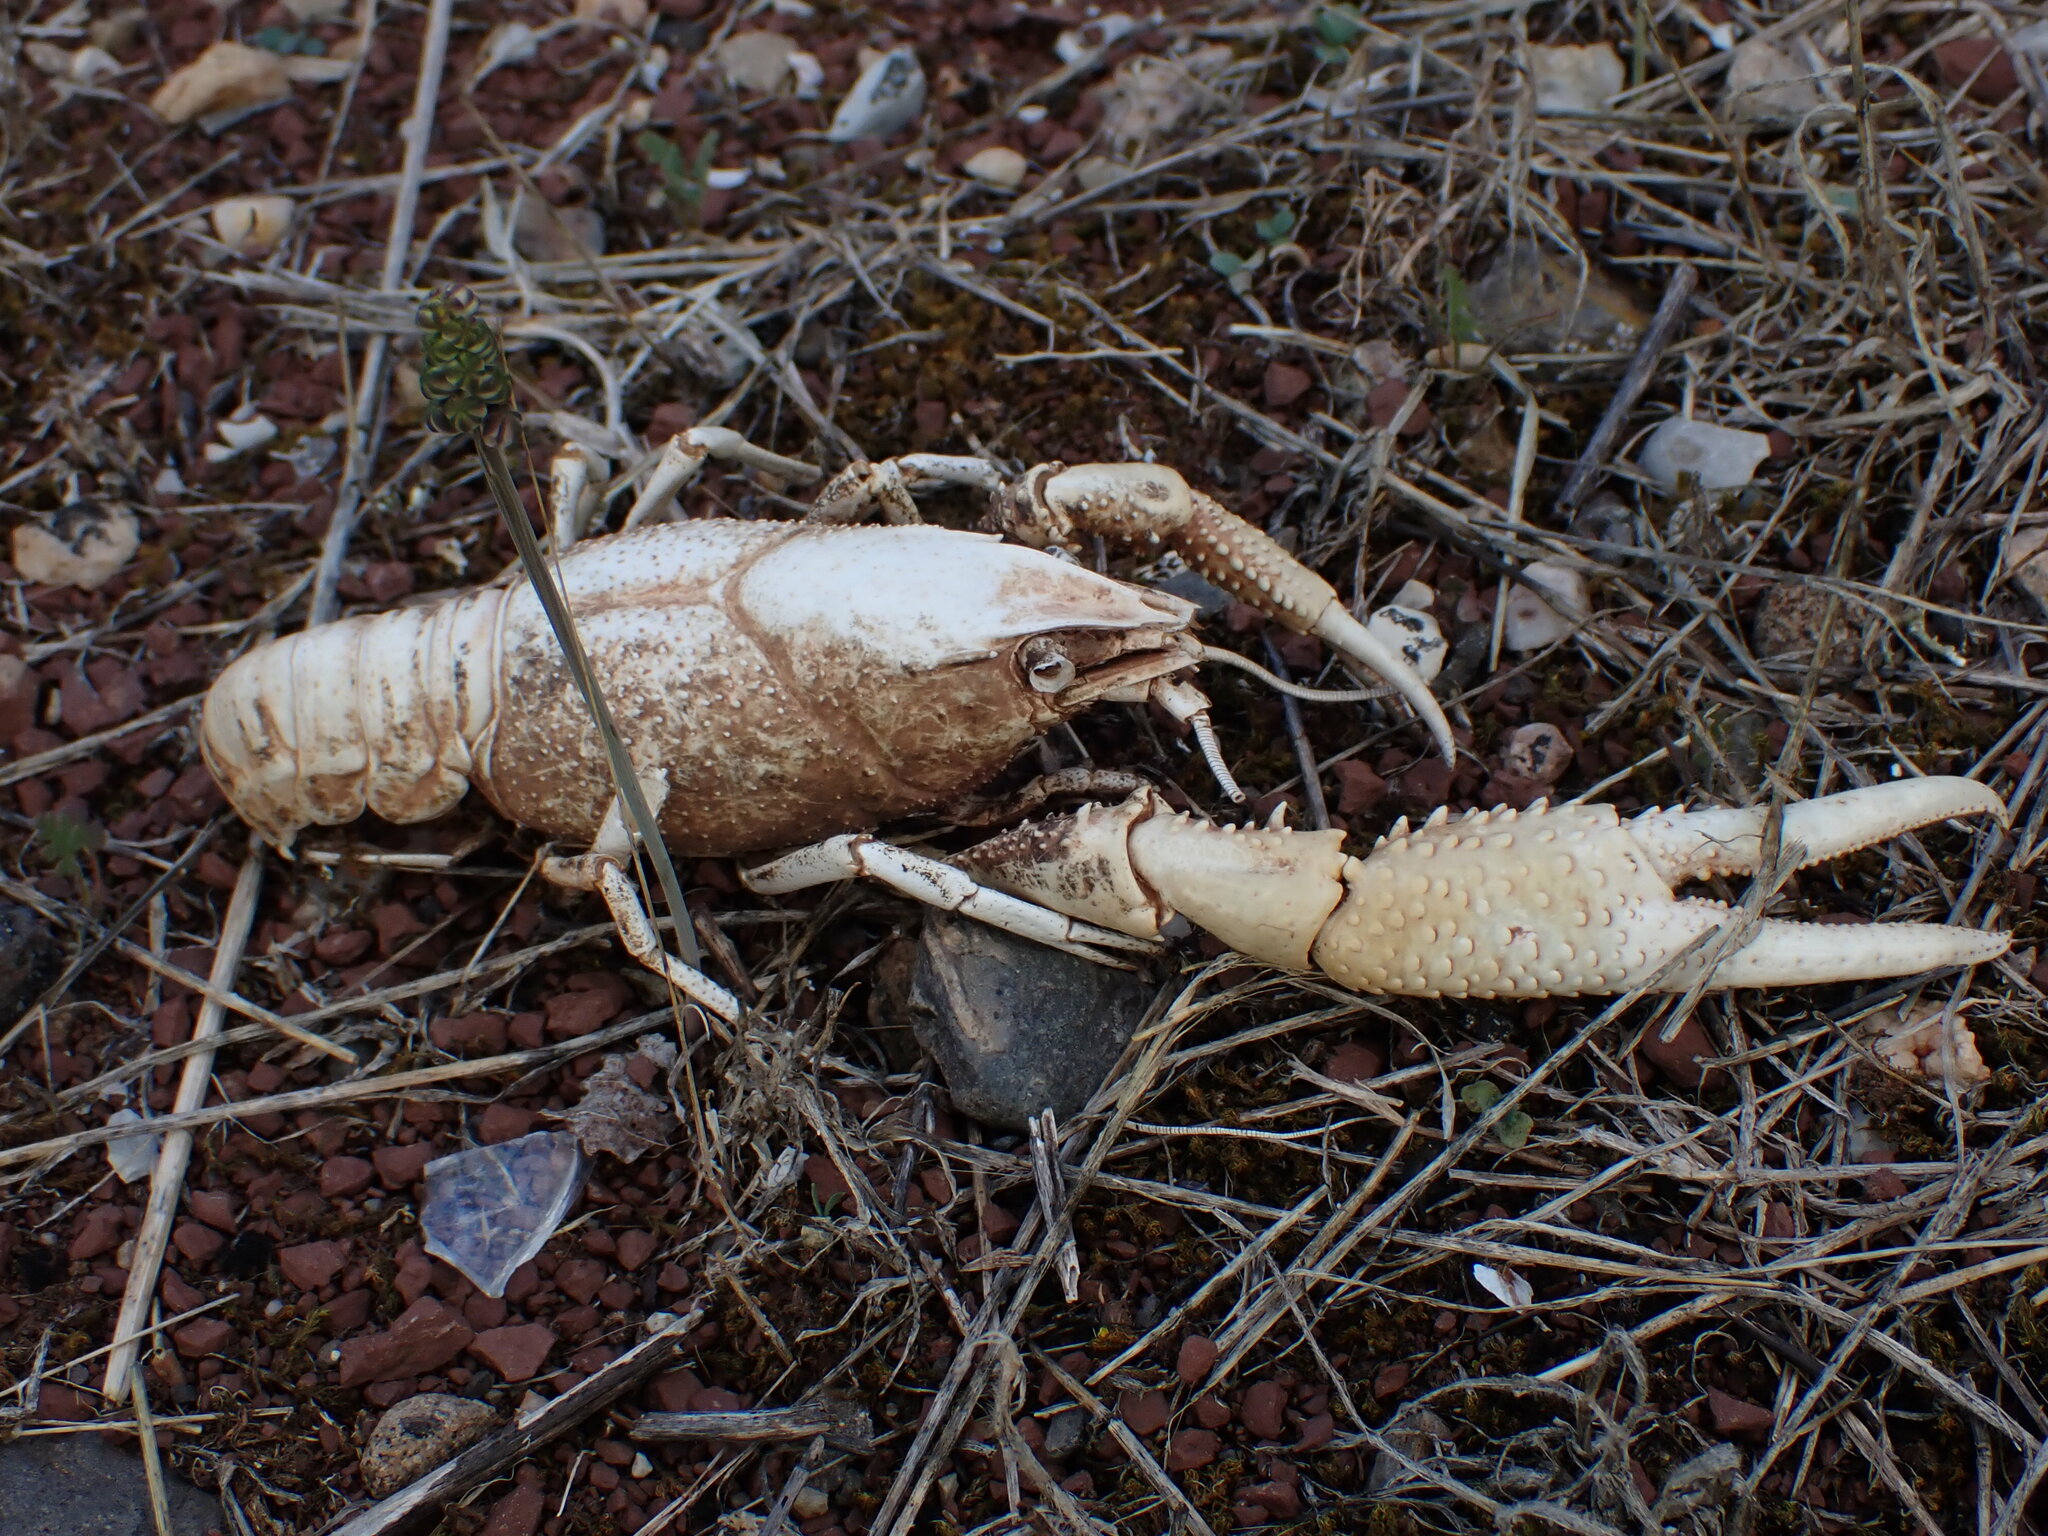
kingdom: Animalia
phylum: Arthropoda
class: Malacostraca
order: Decapoda
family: Cambaridae
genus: Procambarus
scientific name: Procambarus clarkii
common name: Red swamp crayfish
